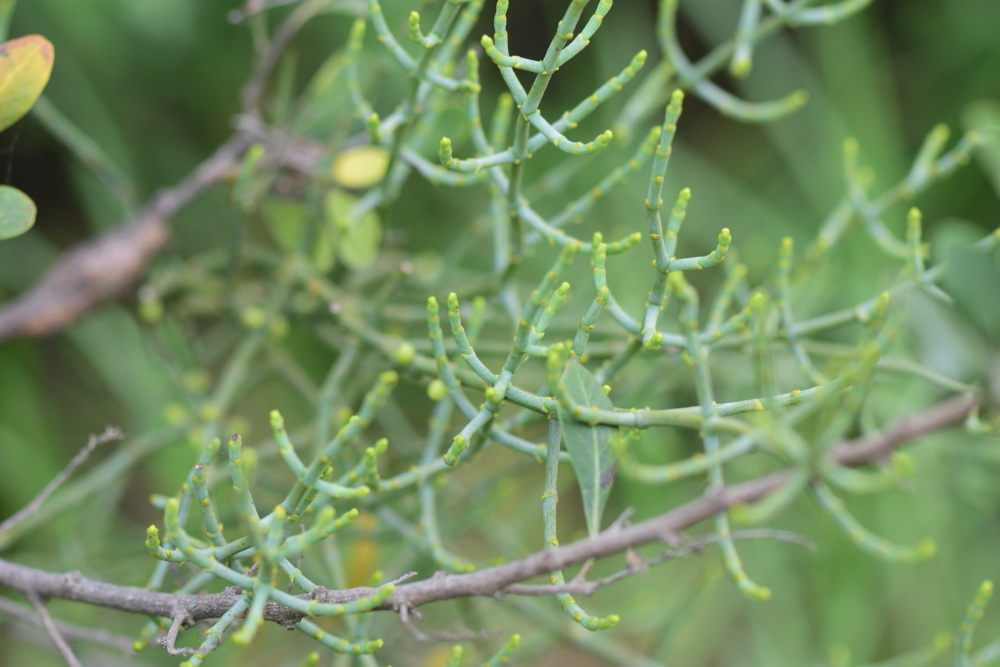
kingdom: Plantae
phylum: Tracheophyta
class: Magnoliopsida
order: Santalales
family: Viscaceae
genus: Viscum
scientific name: Viscum capense
